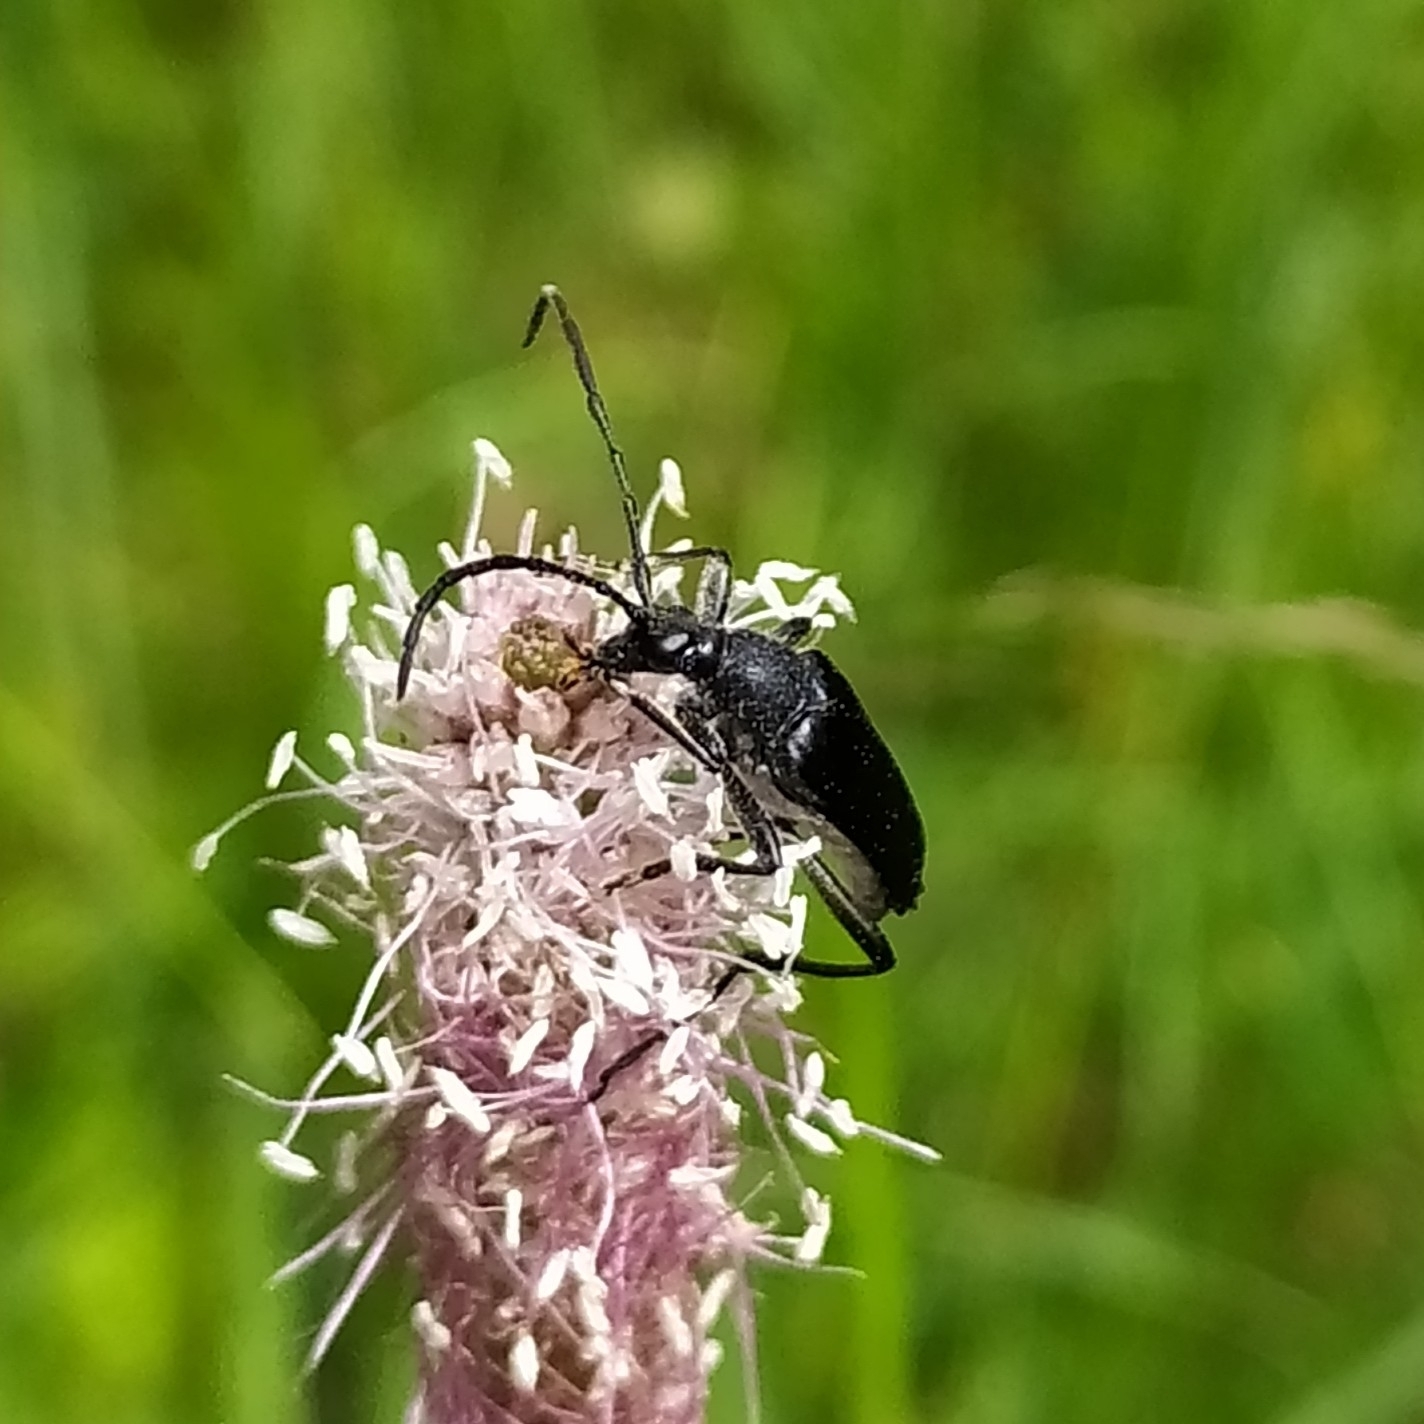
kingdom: Animalia
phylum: Arthropoda
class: Insecta
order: Coleoptera
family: Cerambycidae
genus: Leptura
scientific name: Leptura aethiops
